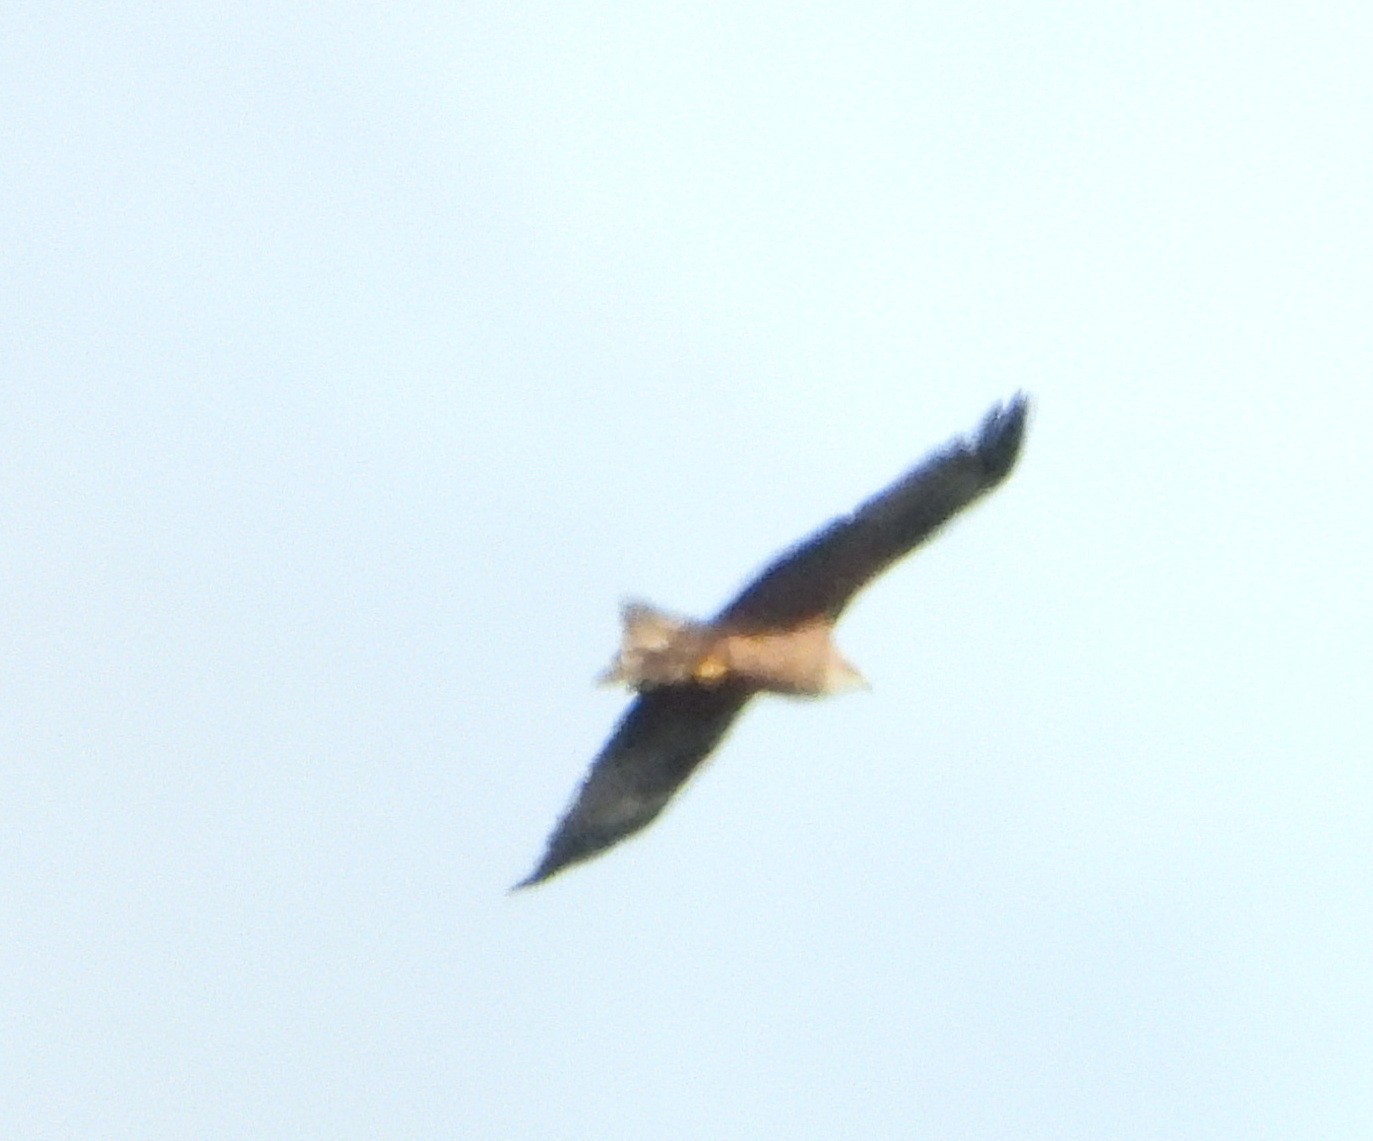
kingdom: Animalia
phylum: Chordata
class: Aves
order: Accipitriformes
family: Accipitridae
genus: Milvus
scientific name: Milvus migrans
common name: Black kite
